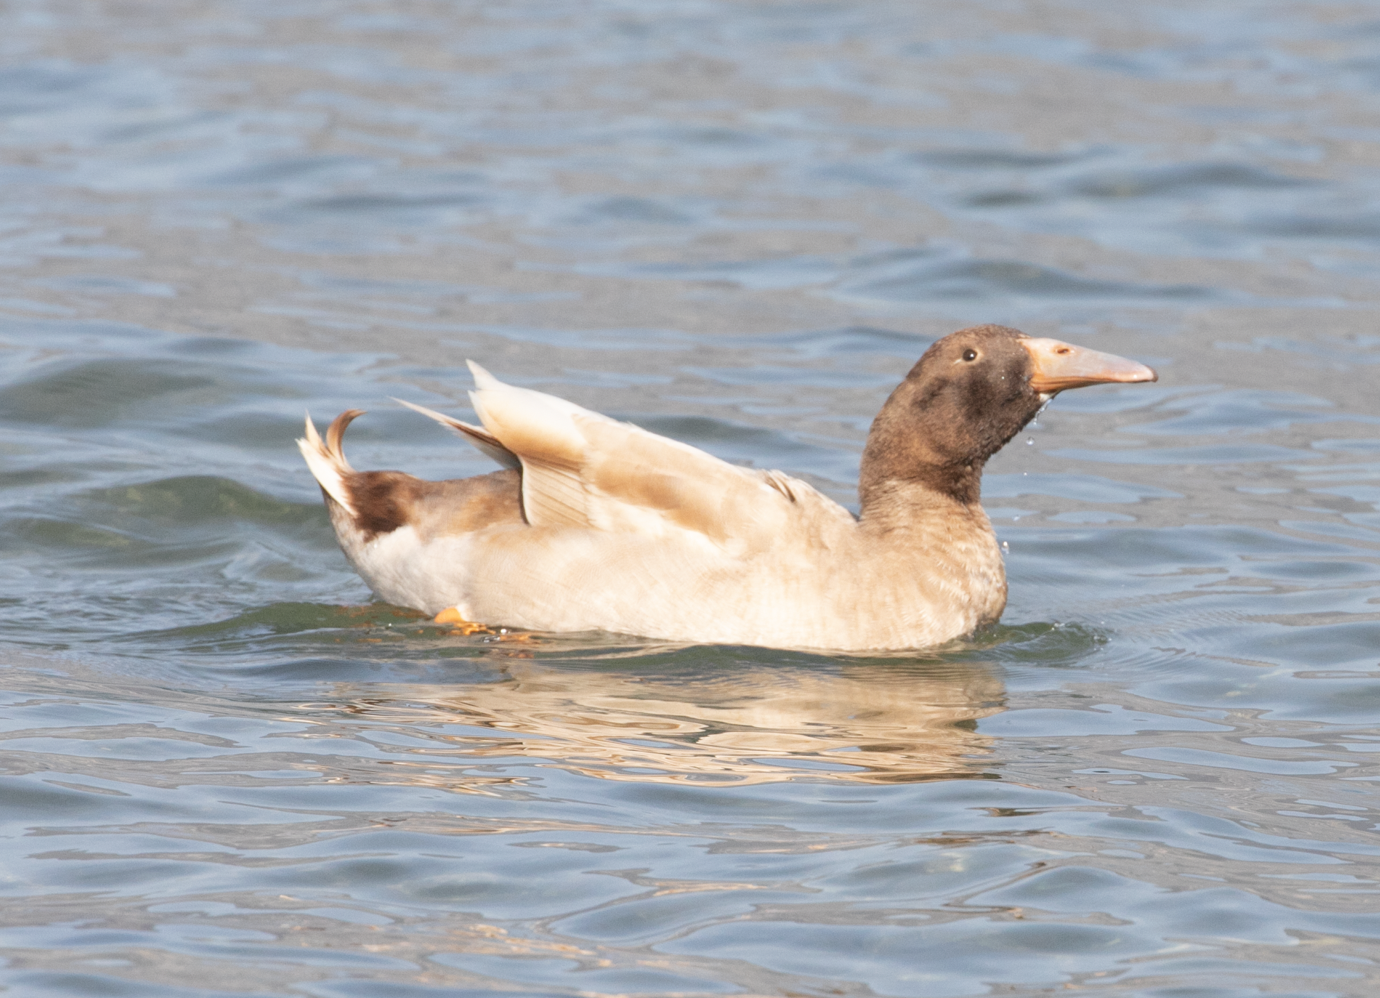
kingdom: Animalia
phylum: Chordata
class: Aves
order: Anseriformes
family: Anatidae
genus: Anas
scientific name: Anas platyrhynchos
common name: Mallard
